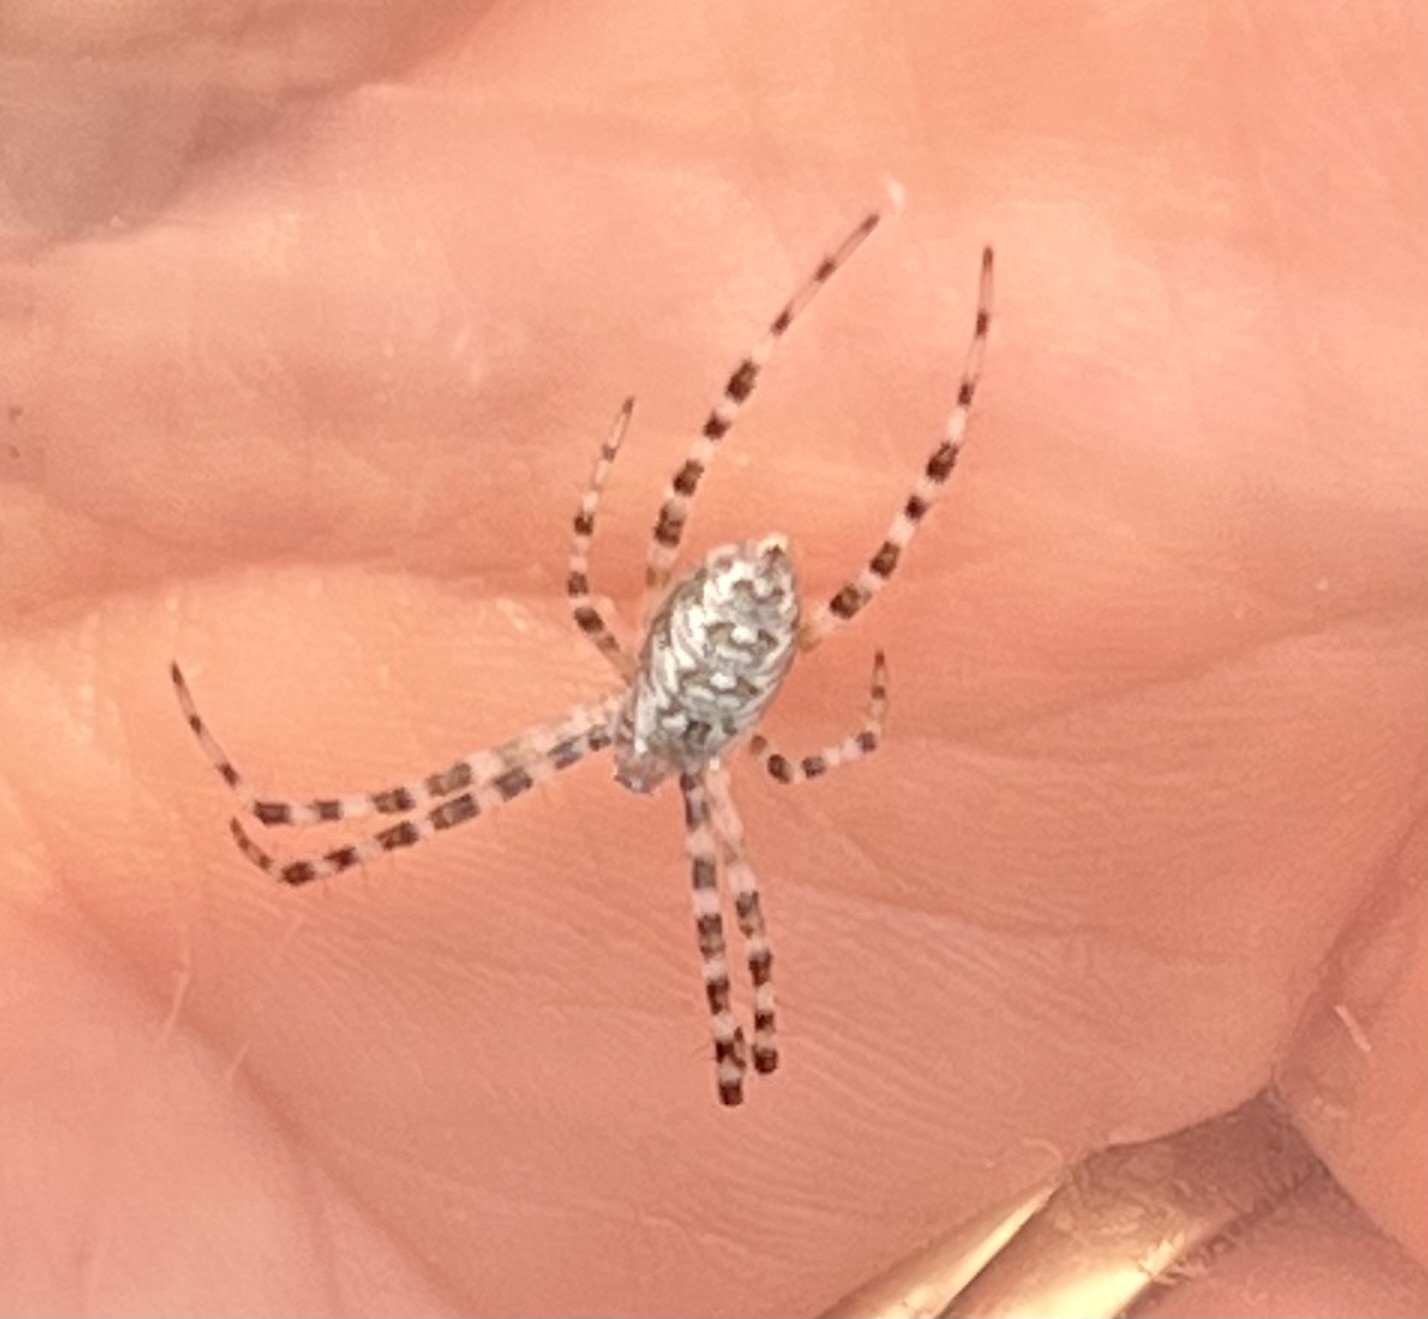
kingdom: Animalia
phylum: Arthropoda
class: Arachnida
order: Araneae
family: Araneidae
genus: Argiope
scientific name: Argiope aurantia
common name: Orb weavers
